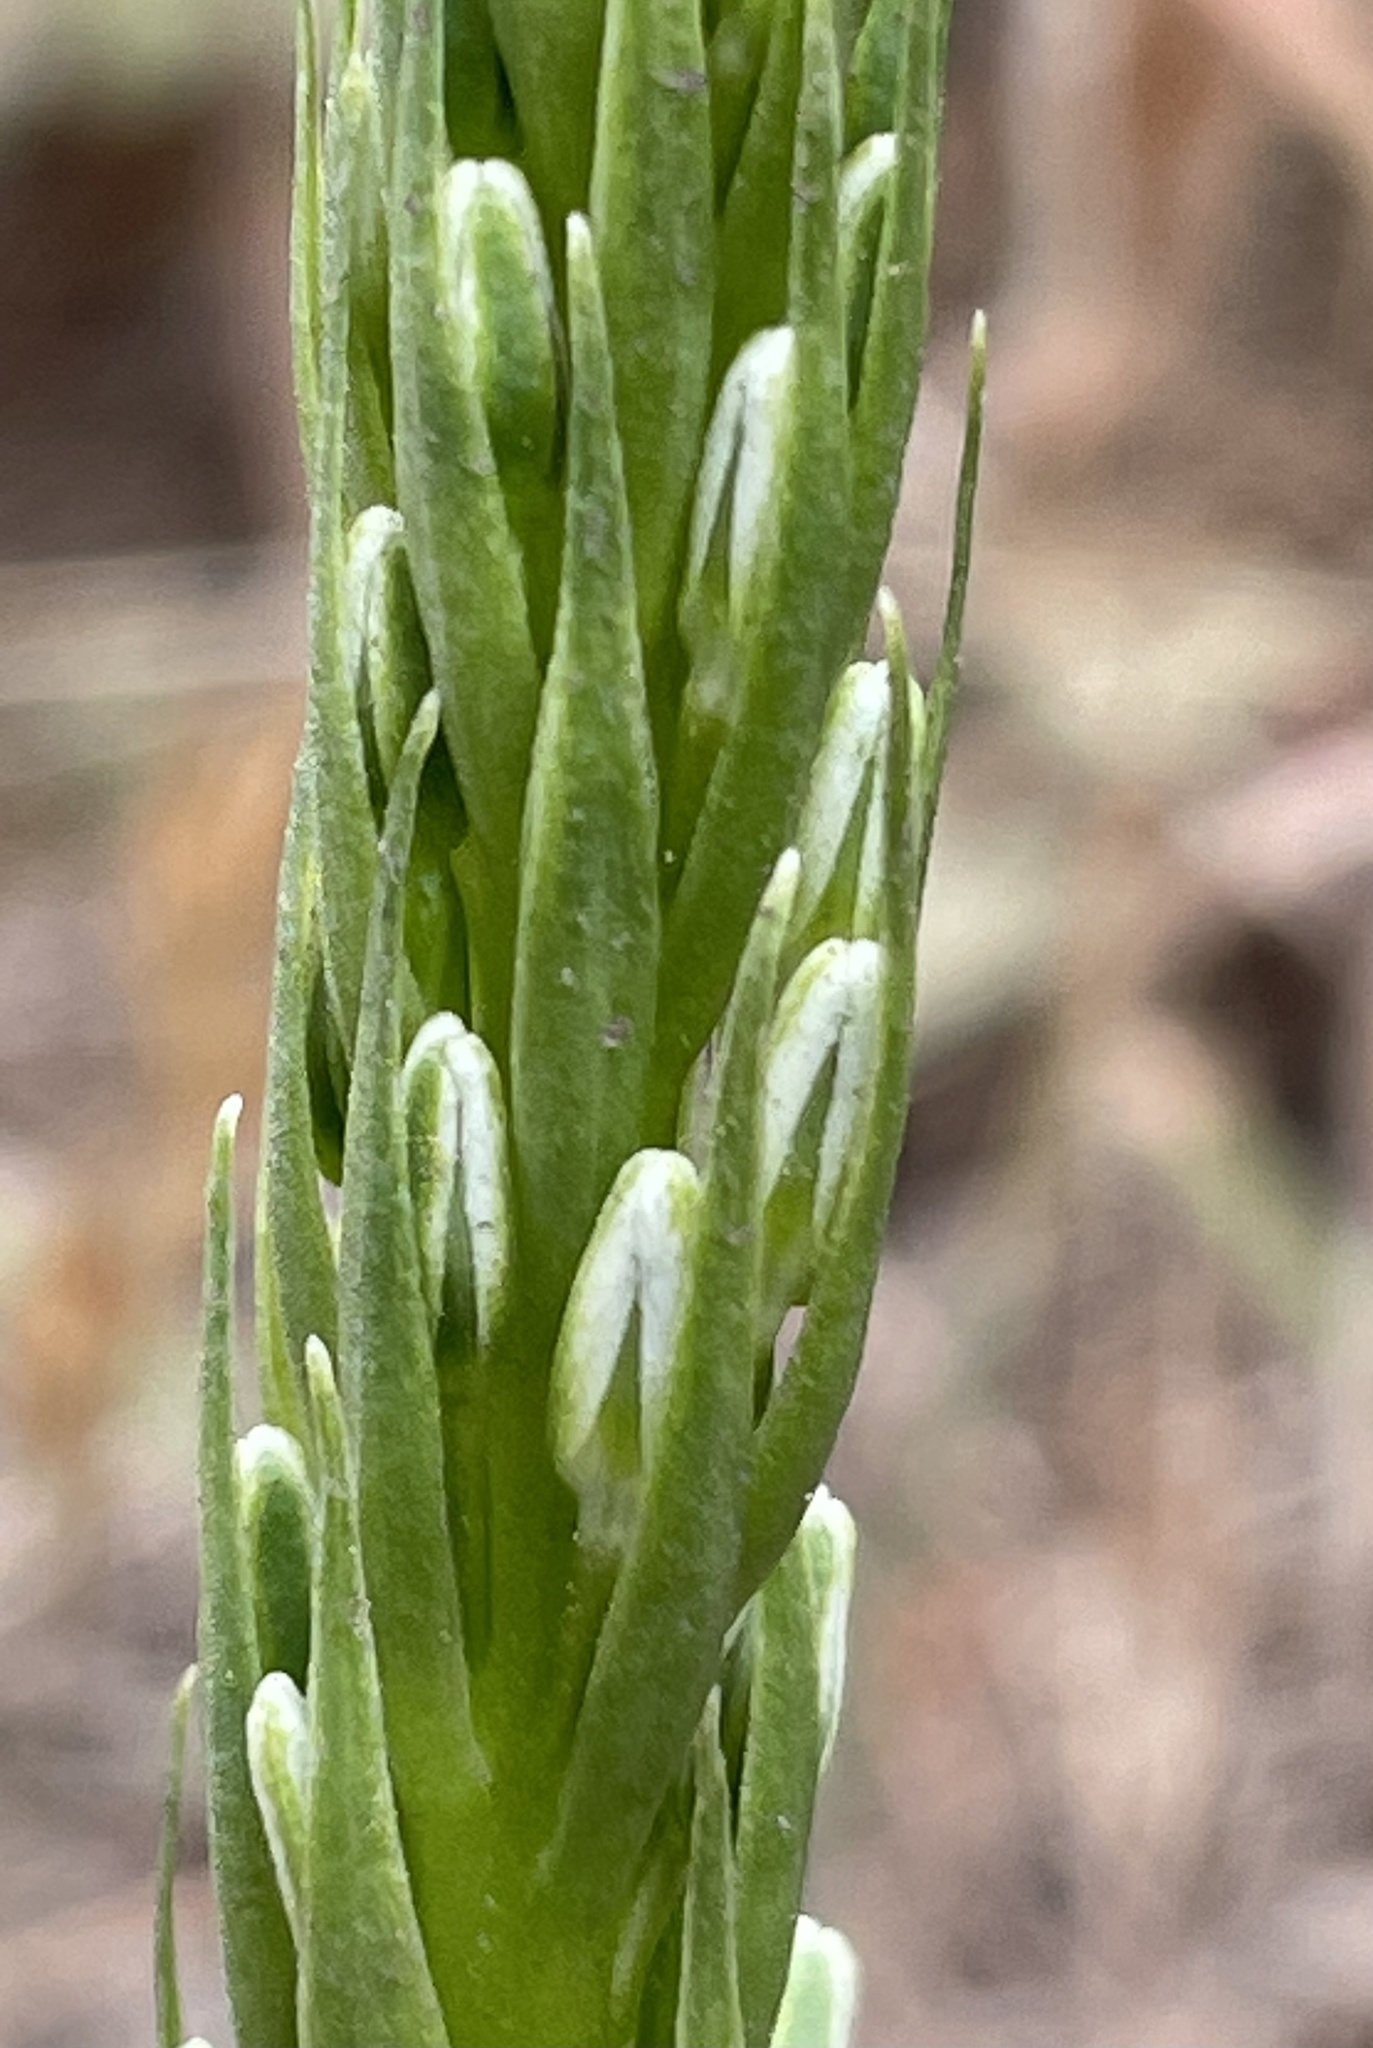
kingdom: Plantae
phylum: Tracheophyta
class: Liliopsida
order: Asparagales
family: Orchidaceae
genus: Platanthera
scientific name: Platanthera elegans
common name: Coast piperia
